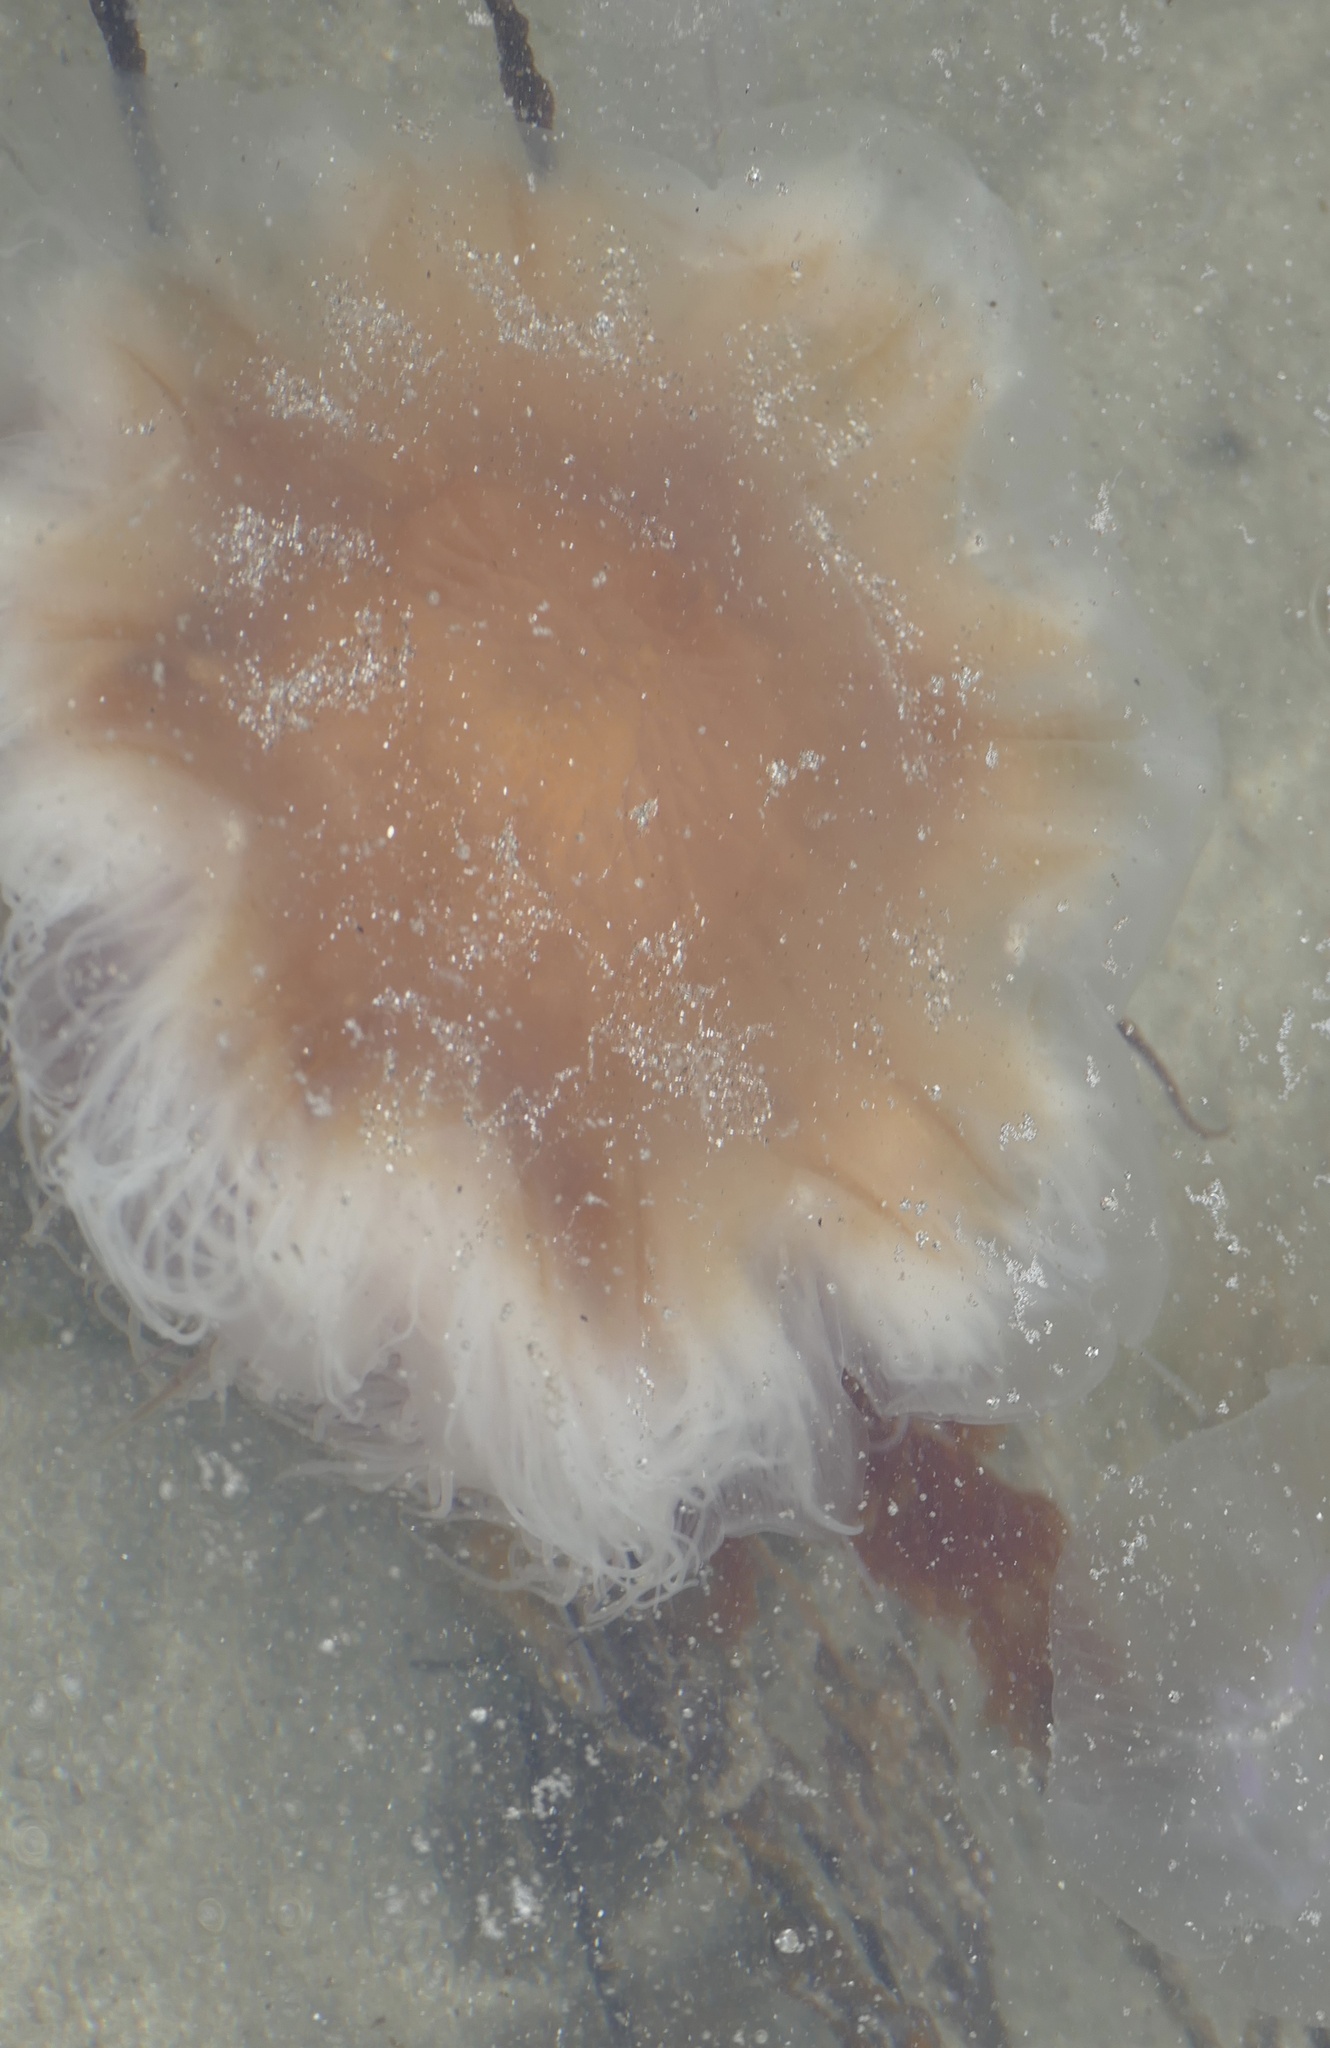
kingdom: Animalia
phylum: Cnidaria
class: Scyphozoa
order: Semaeostomeae
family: Cyaneidae
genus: Cyanea
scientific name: Cyanea capillata
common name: Lion's mane jellyfish
